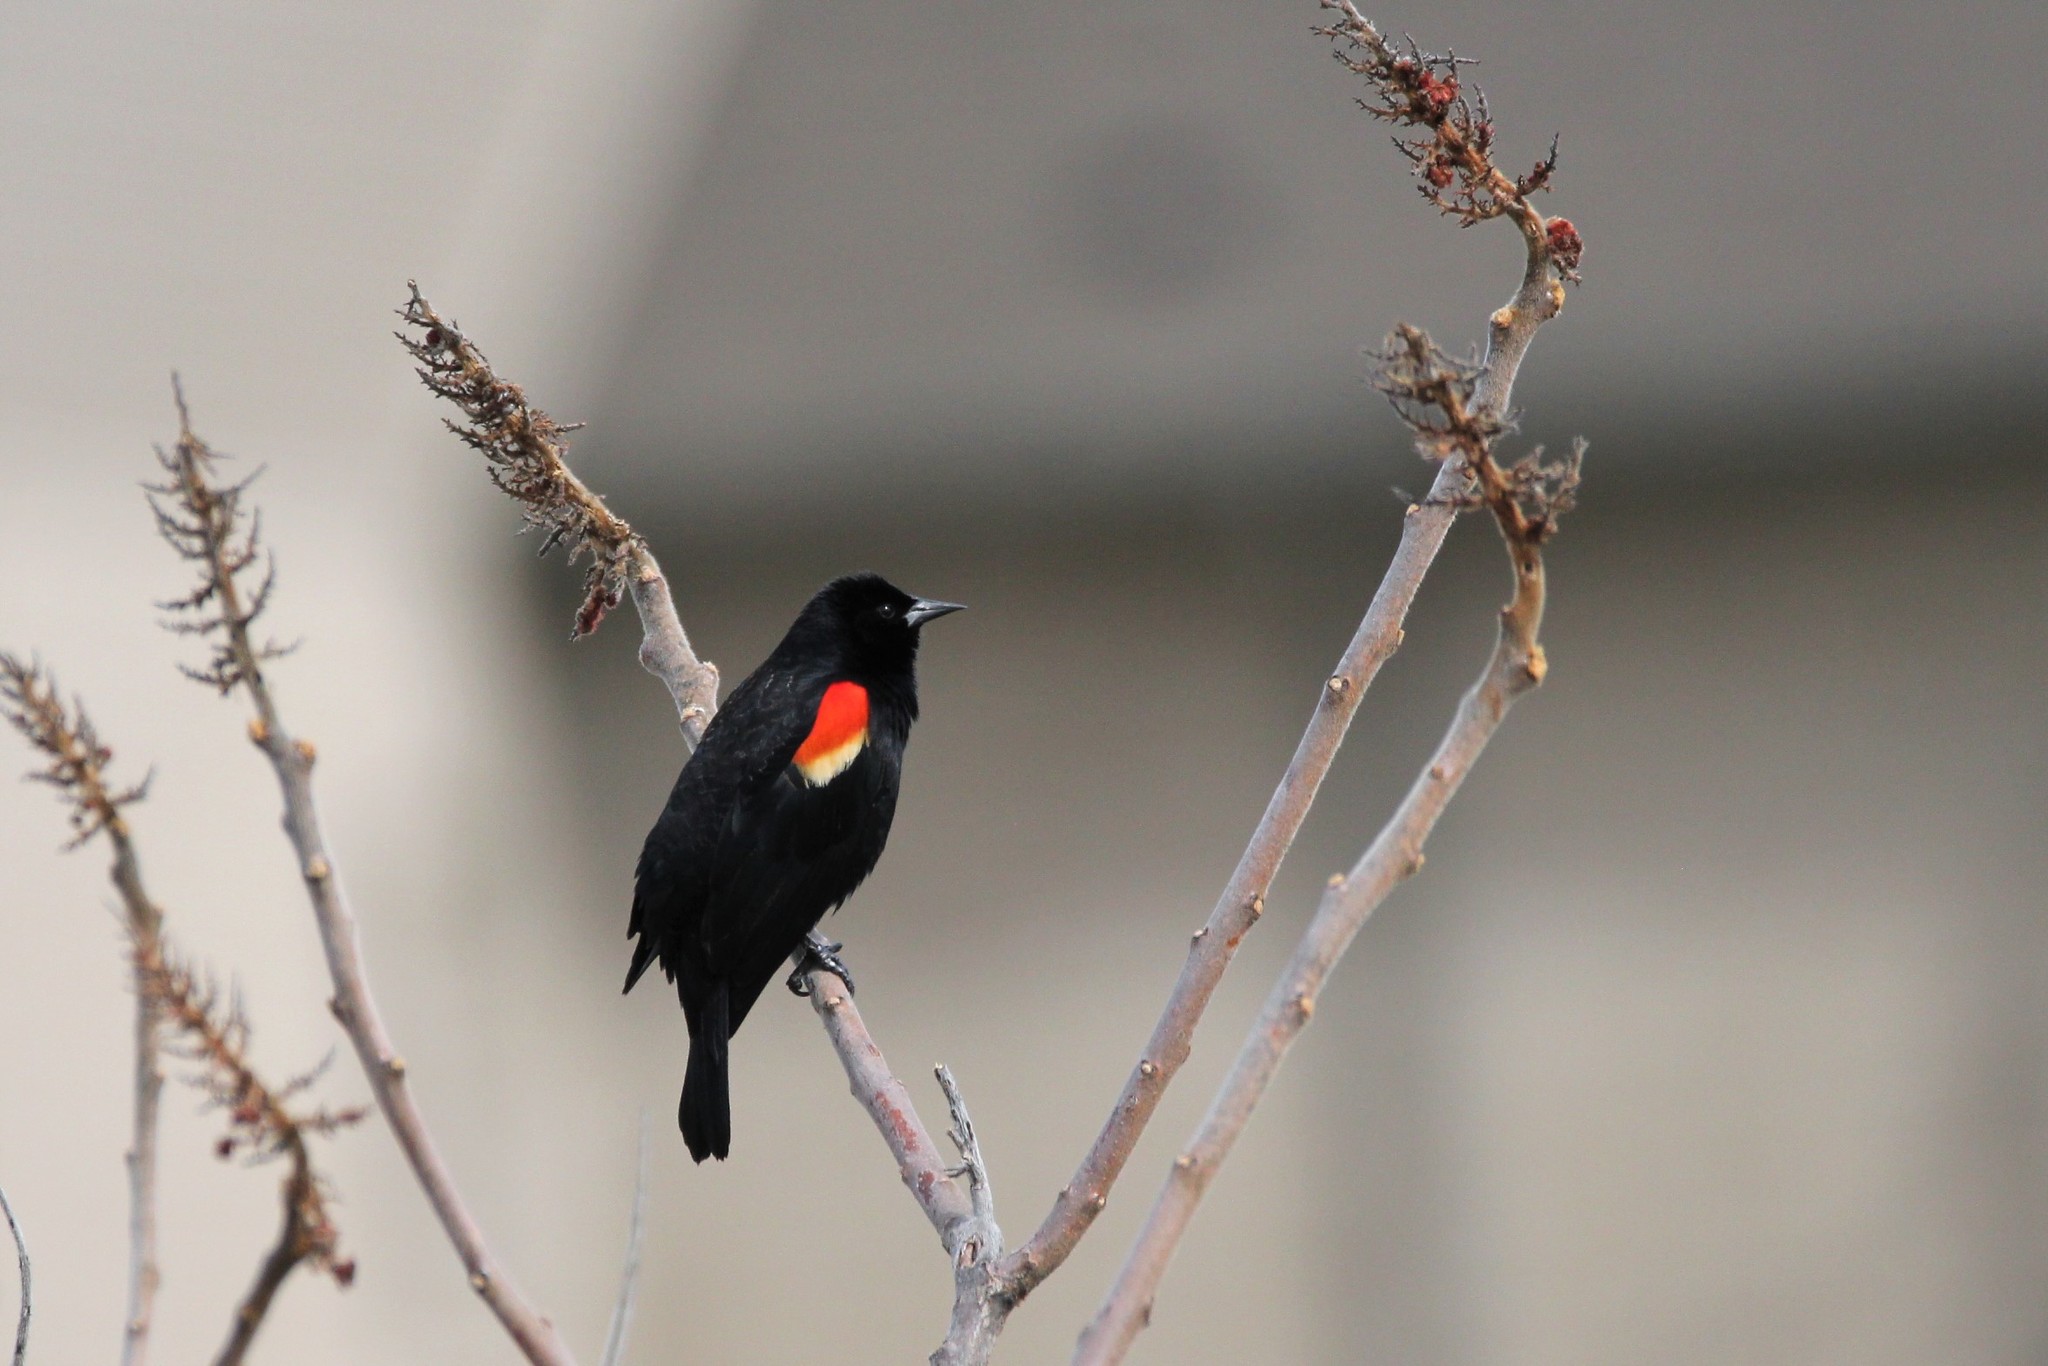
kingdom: Animalia
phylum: Chordata
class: Aves
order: Passeriformes
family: Icteridae
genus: Agelaius
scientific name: Agelaius phoeniceus
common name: Red-winged blackbird
